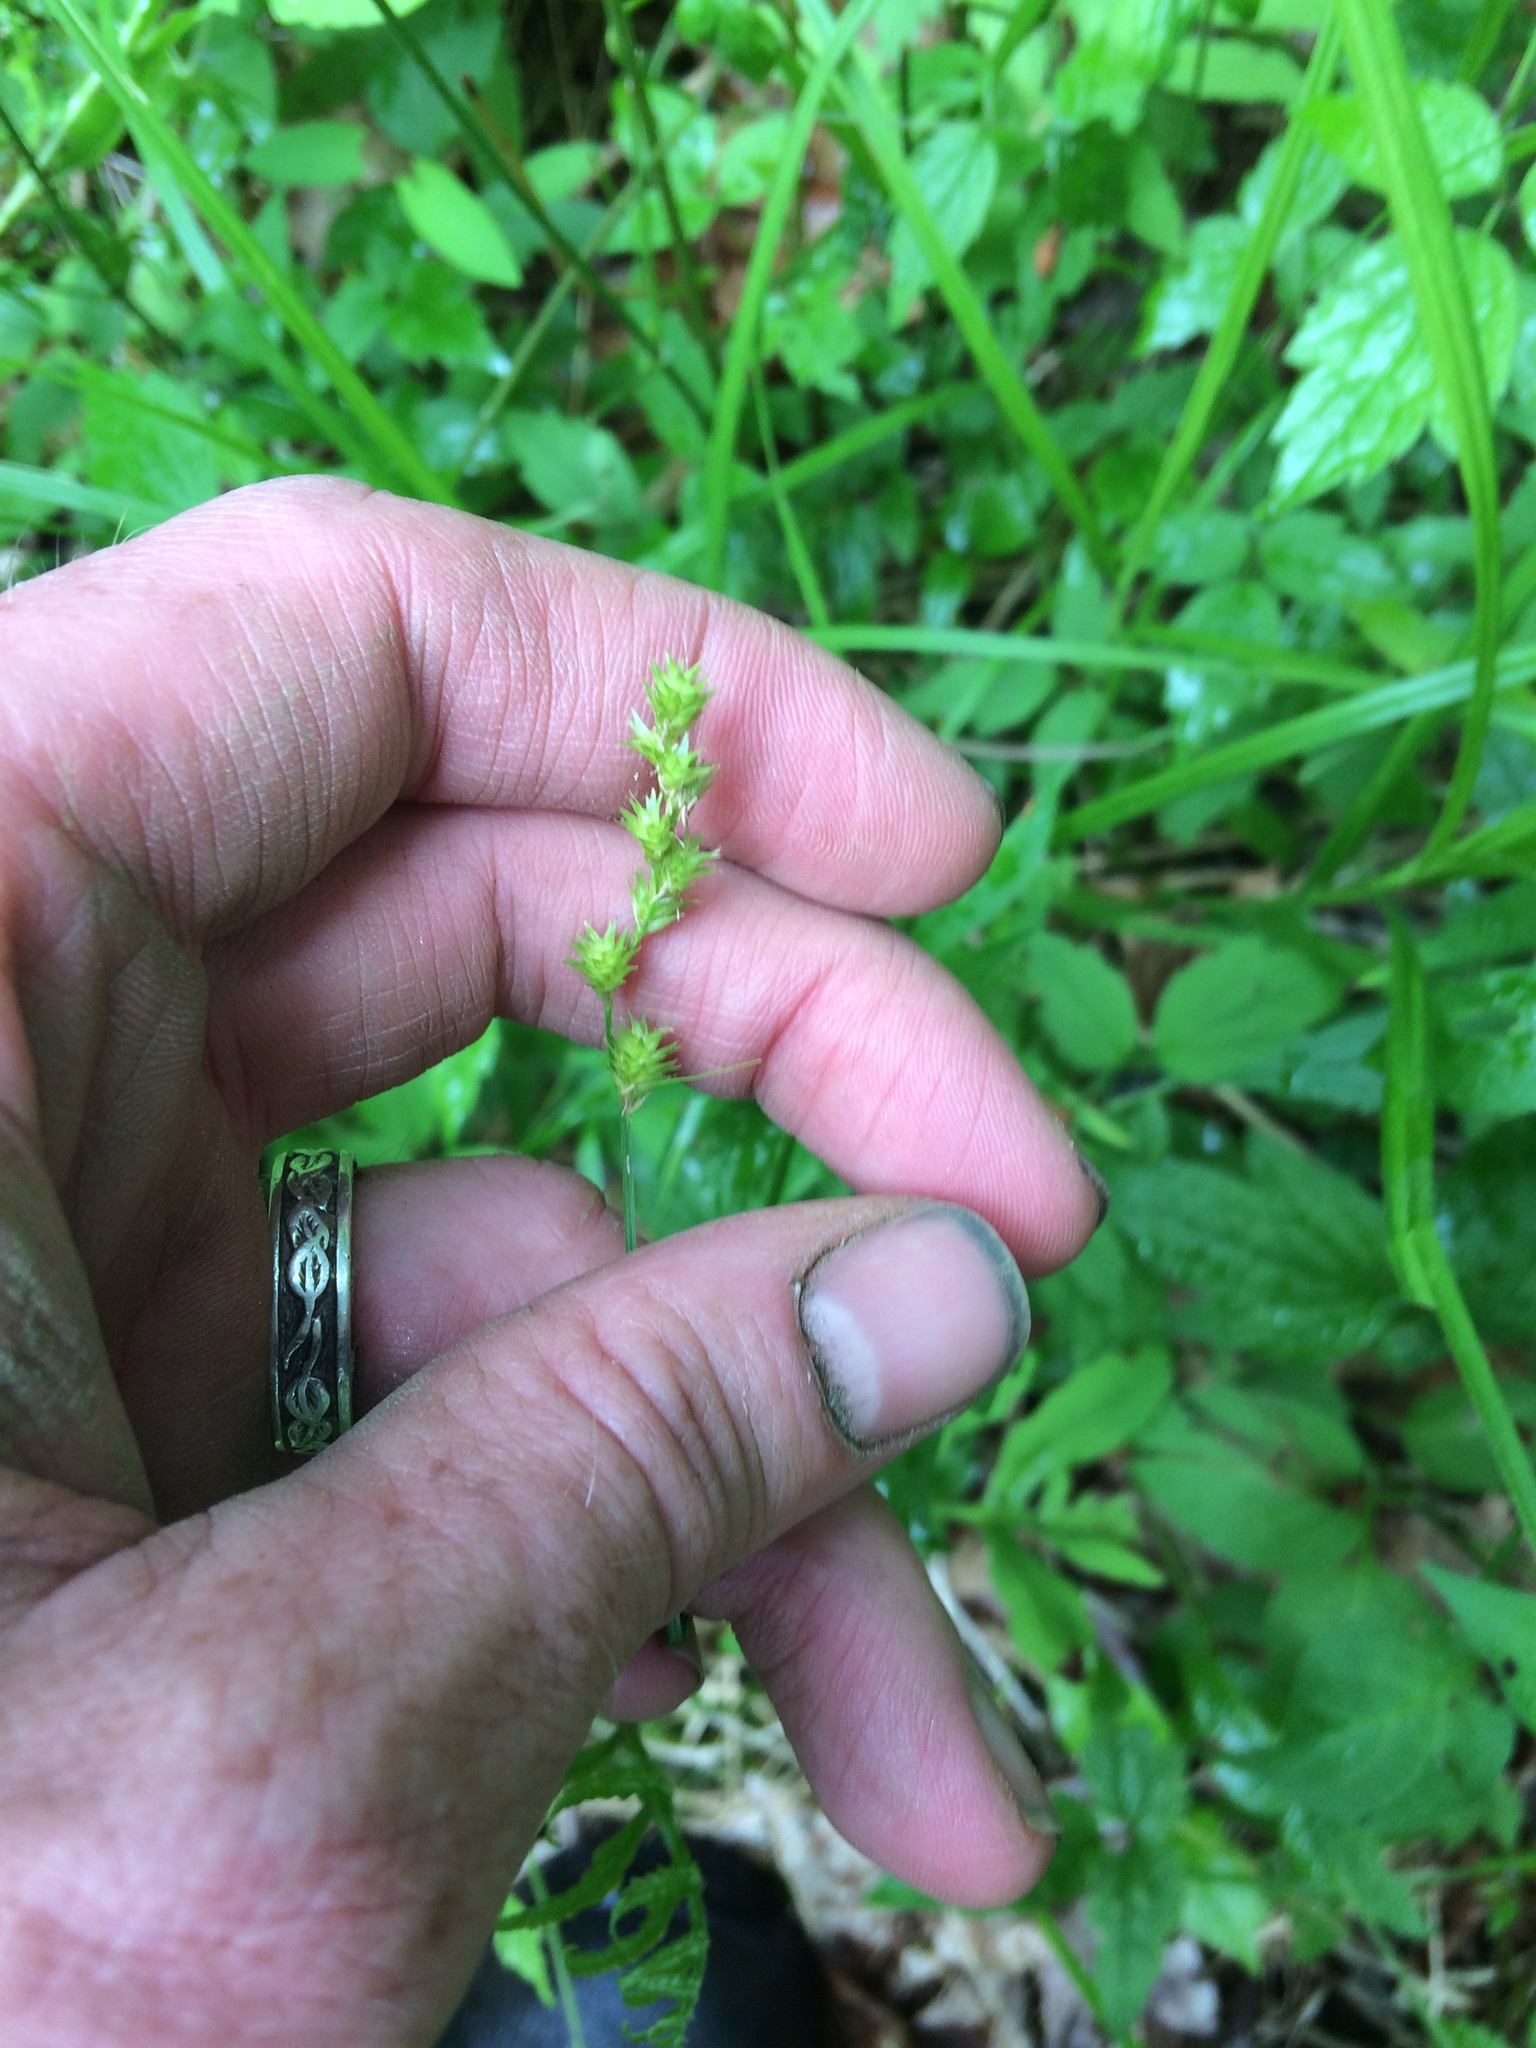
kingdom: Plantae
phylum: Tracheophyta
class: Liliopsida
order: Poales
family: Cyperaceae
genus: Carex
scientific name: Carex
